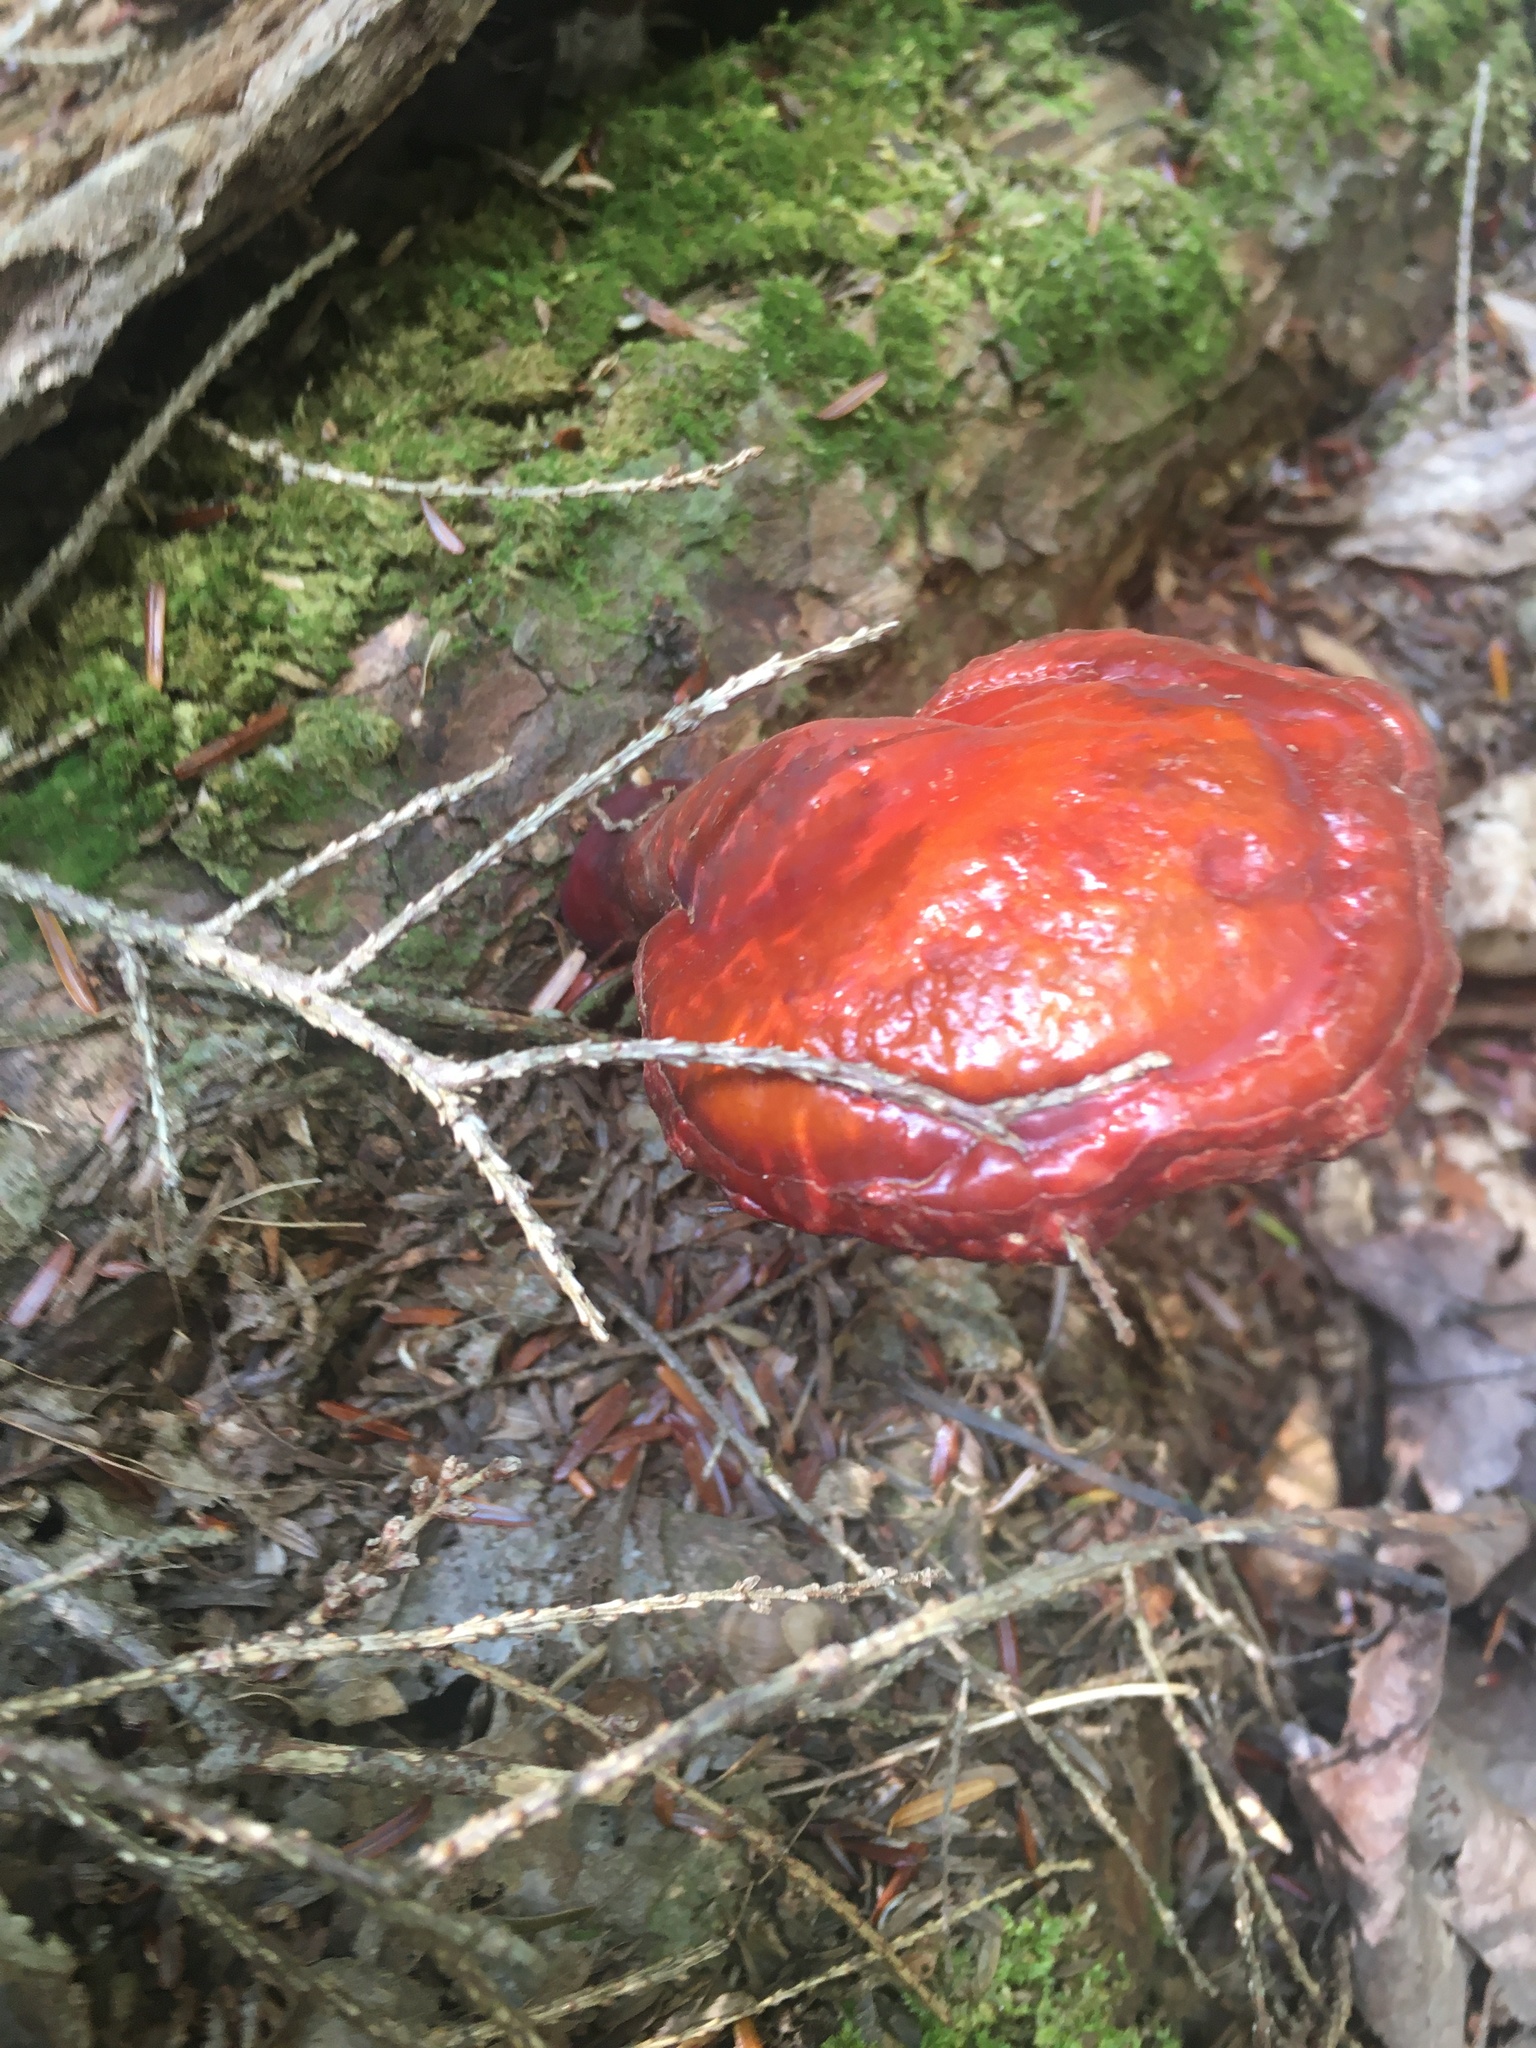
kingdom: Fungi
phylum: Basidiomycota
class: Agaricomycetes
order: Polyporales
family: Polyporaceae
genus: Ganoderma
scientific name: Ganoderma tsugae
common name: Hemlock varnish shelf
